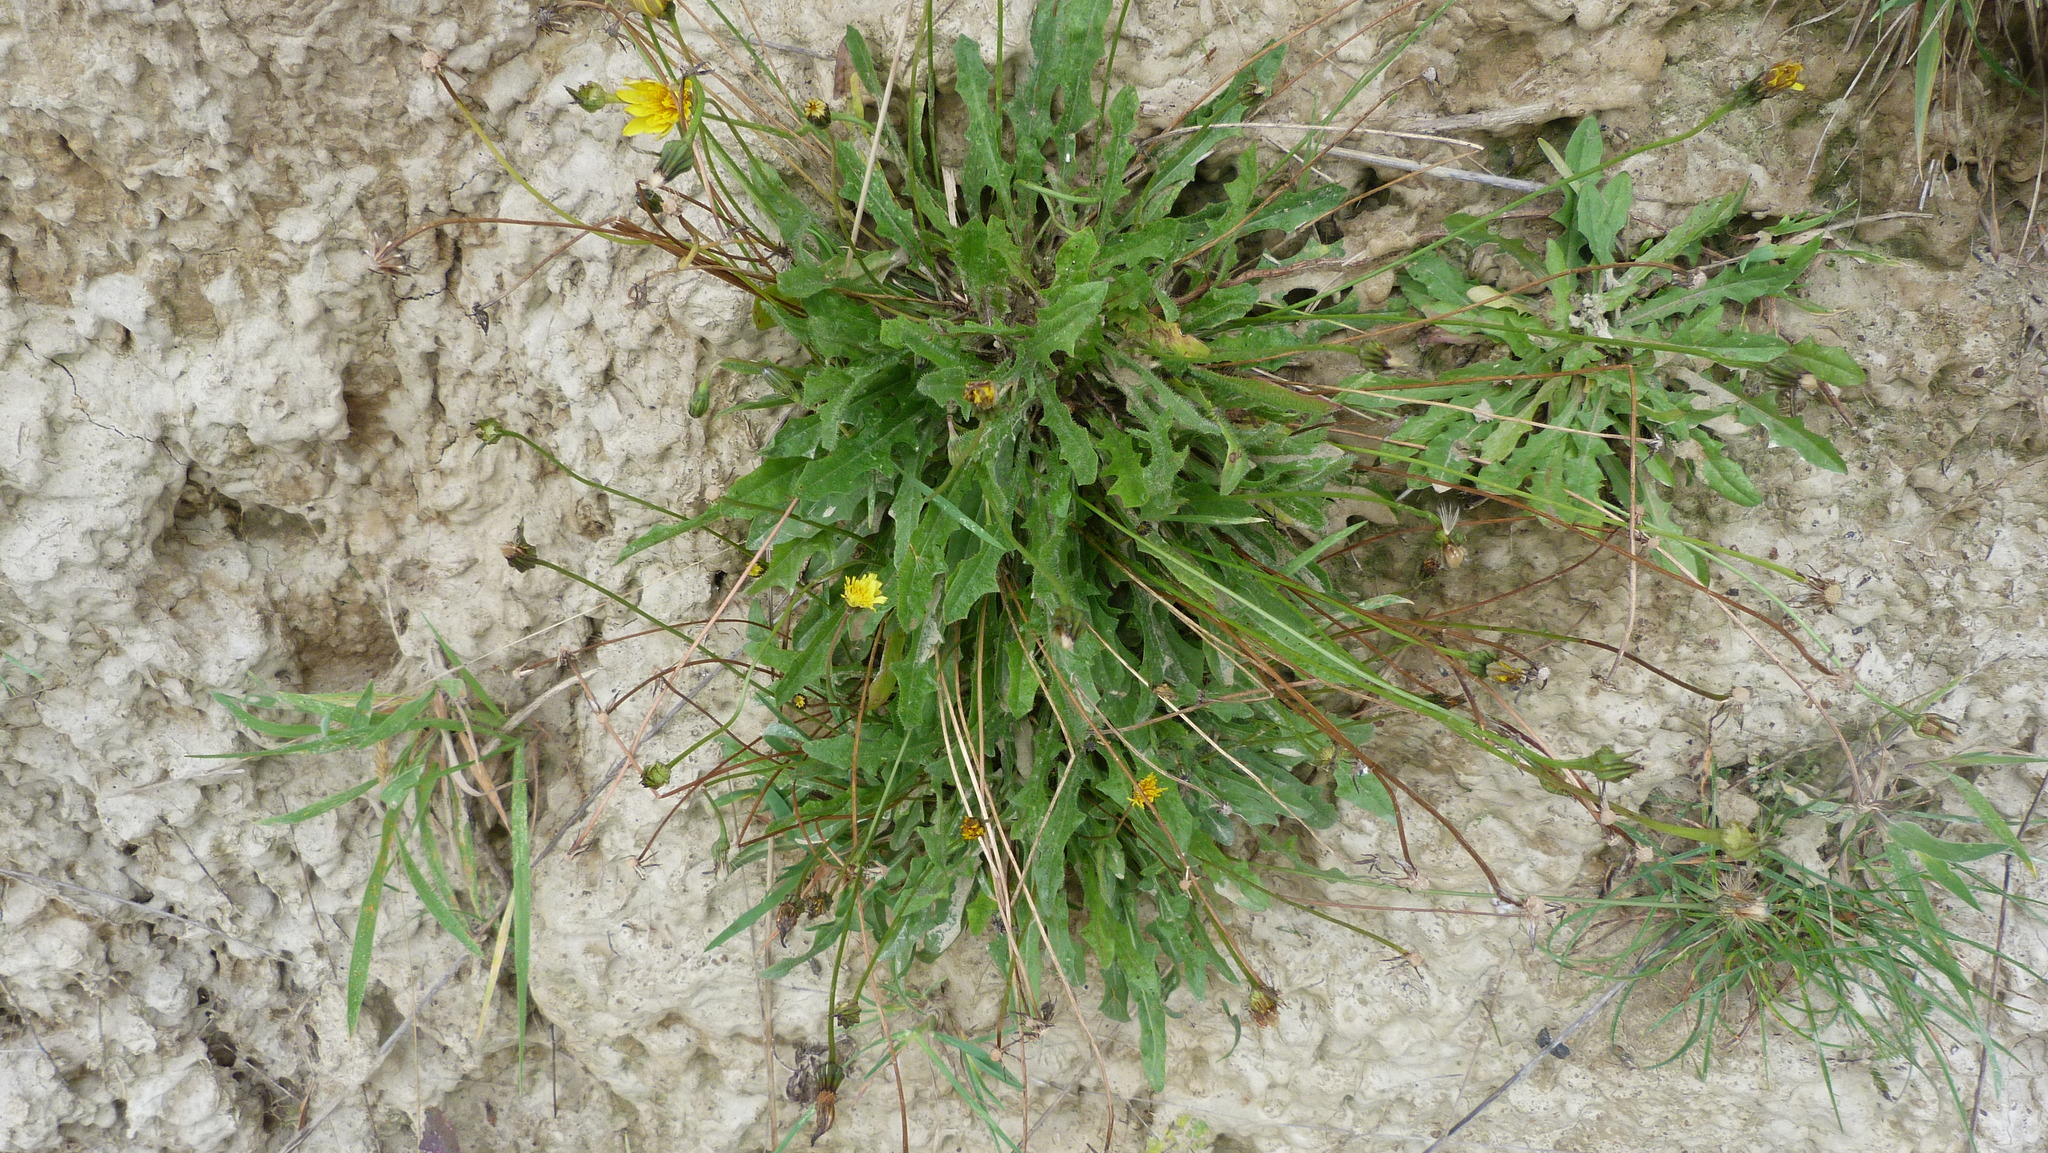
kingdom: Plantae
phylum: Tracheophyta
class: Magnoliopsida
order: Asterales
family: Asteraceae
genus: Hypochaeris
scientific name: Hypochaeris radicata
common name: Flatweed
